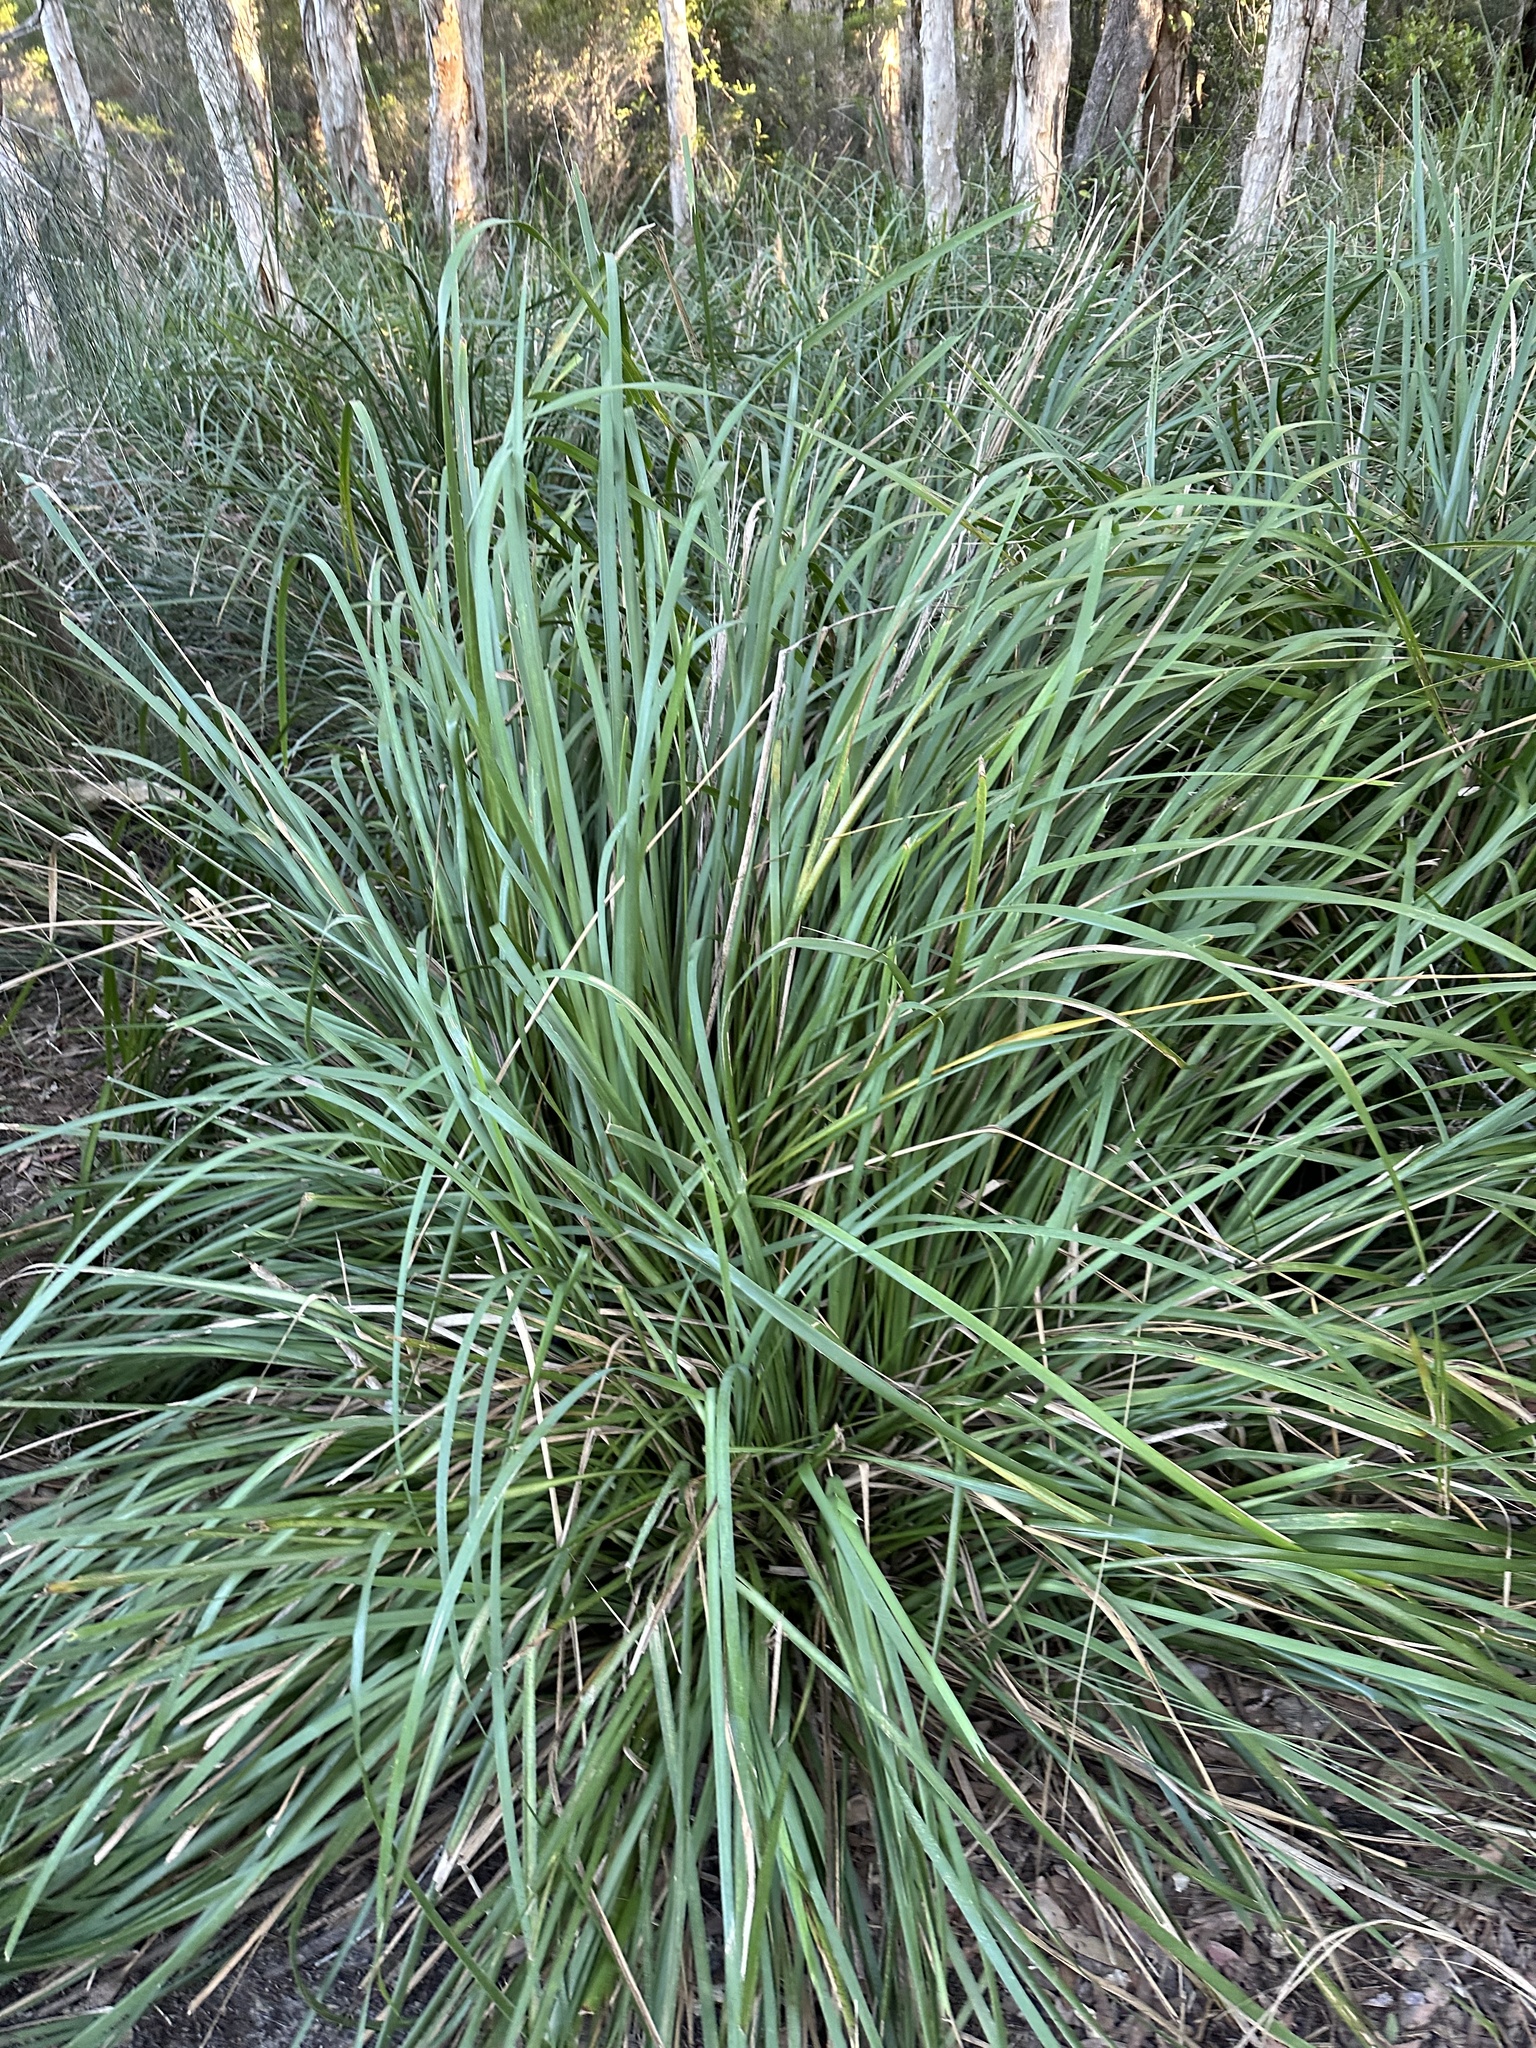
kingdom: Plantae
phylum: Tracheophyta
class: Liliopsida
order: Asparagales
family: Asparagaceae
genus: Lomandra
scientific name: Lomandra longifolia
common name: Longleaf mat-rush
